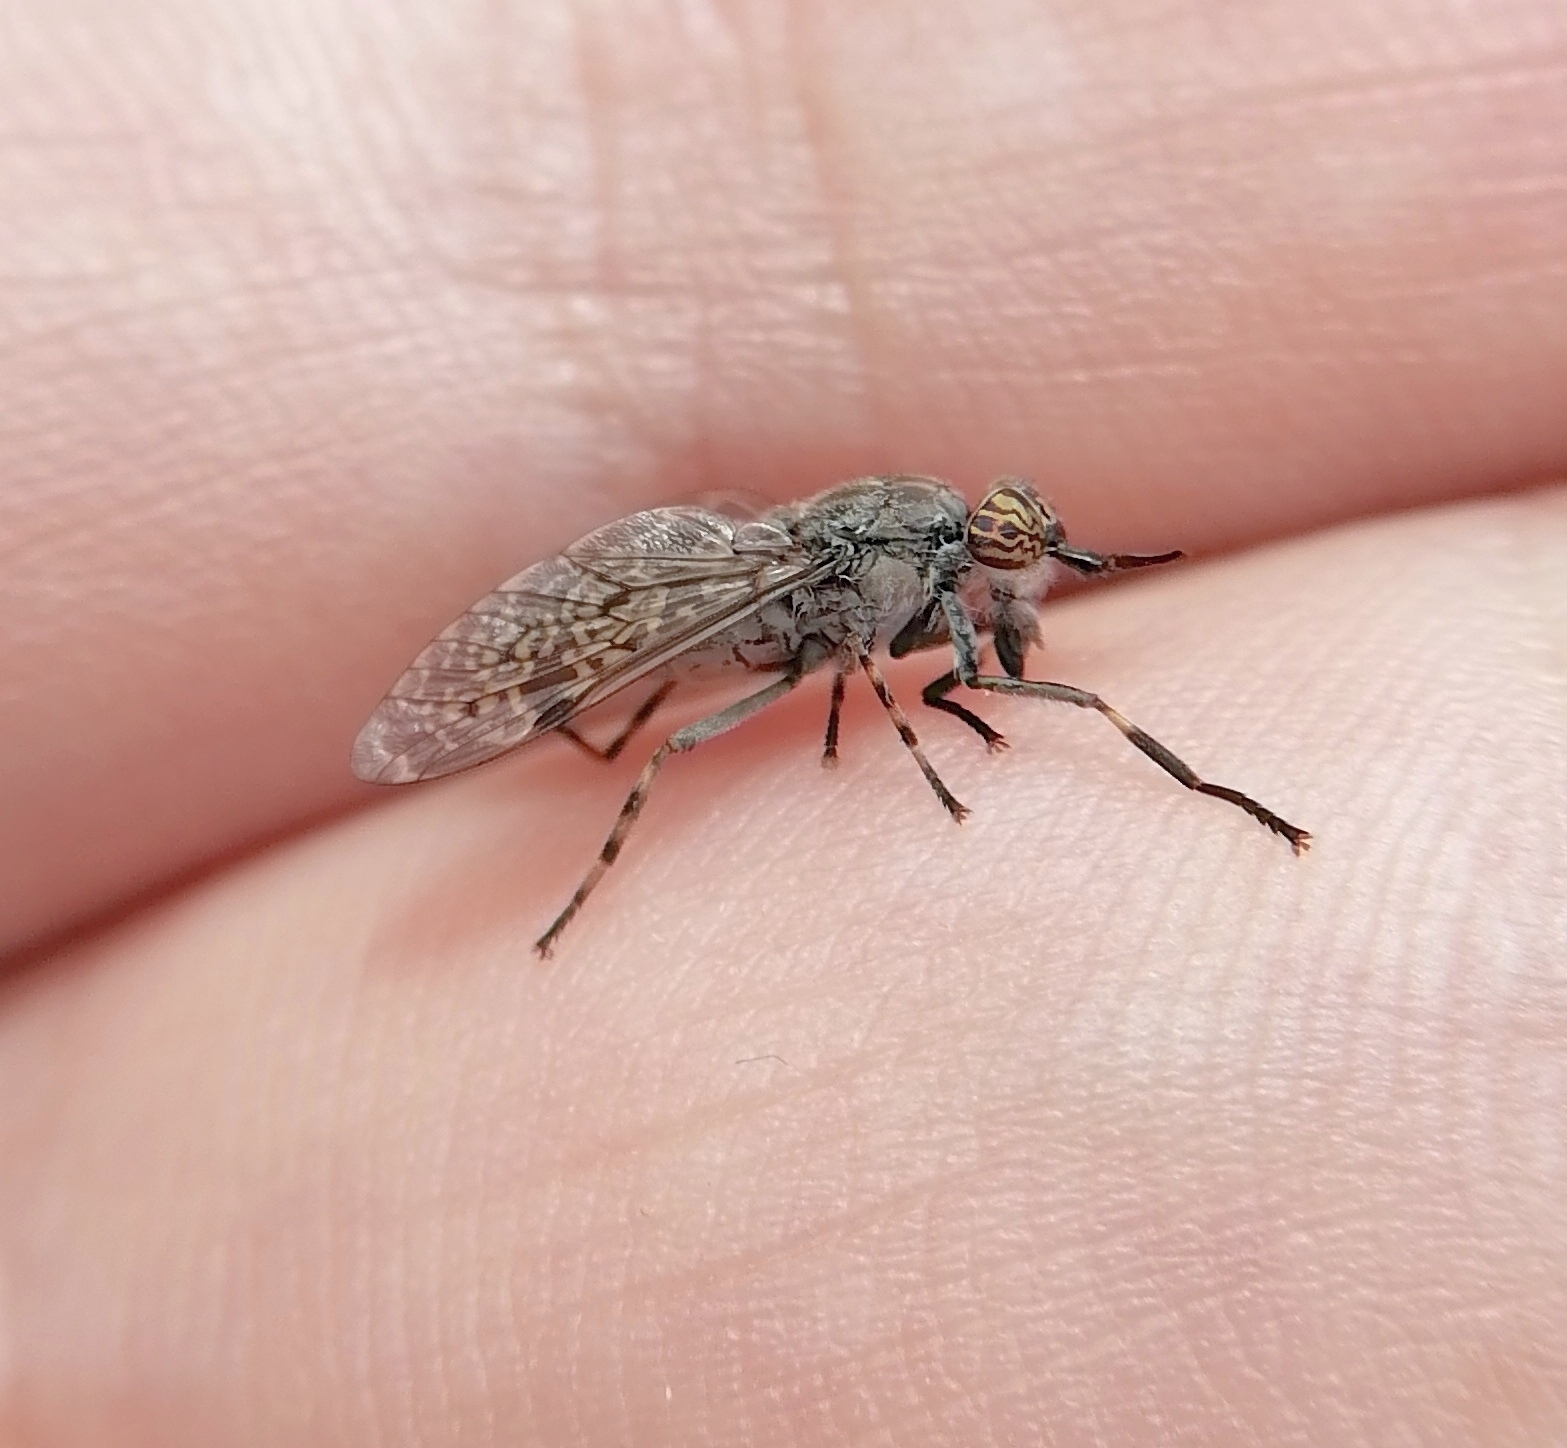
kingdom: Animalia
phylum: Arthropoda
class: Insecta
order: Diptera
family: Tabanidae
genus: Haematopota
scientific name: Haematopota pluvialis
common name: Common horse fly
